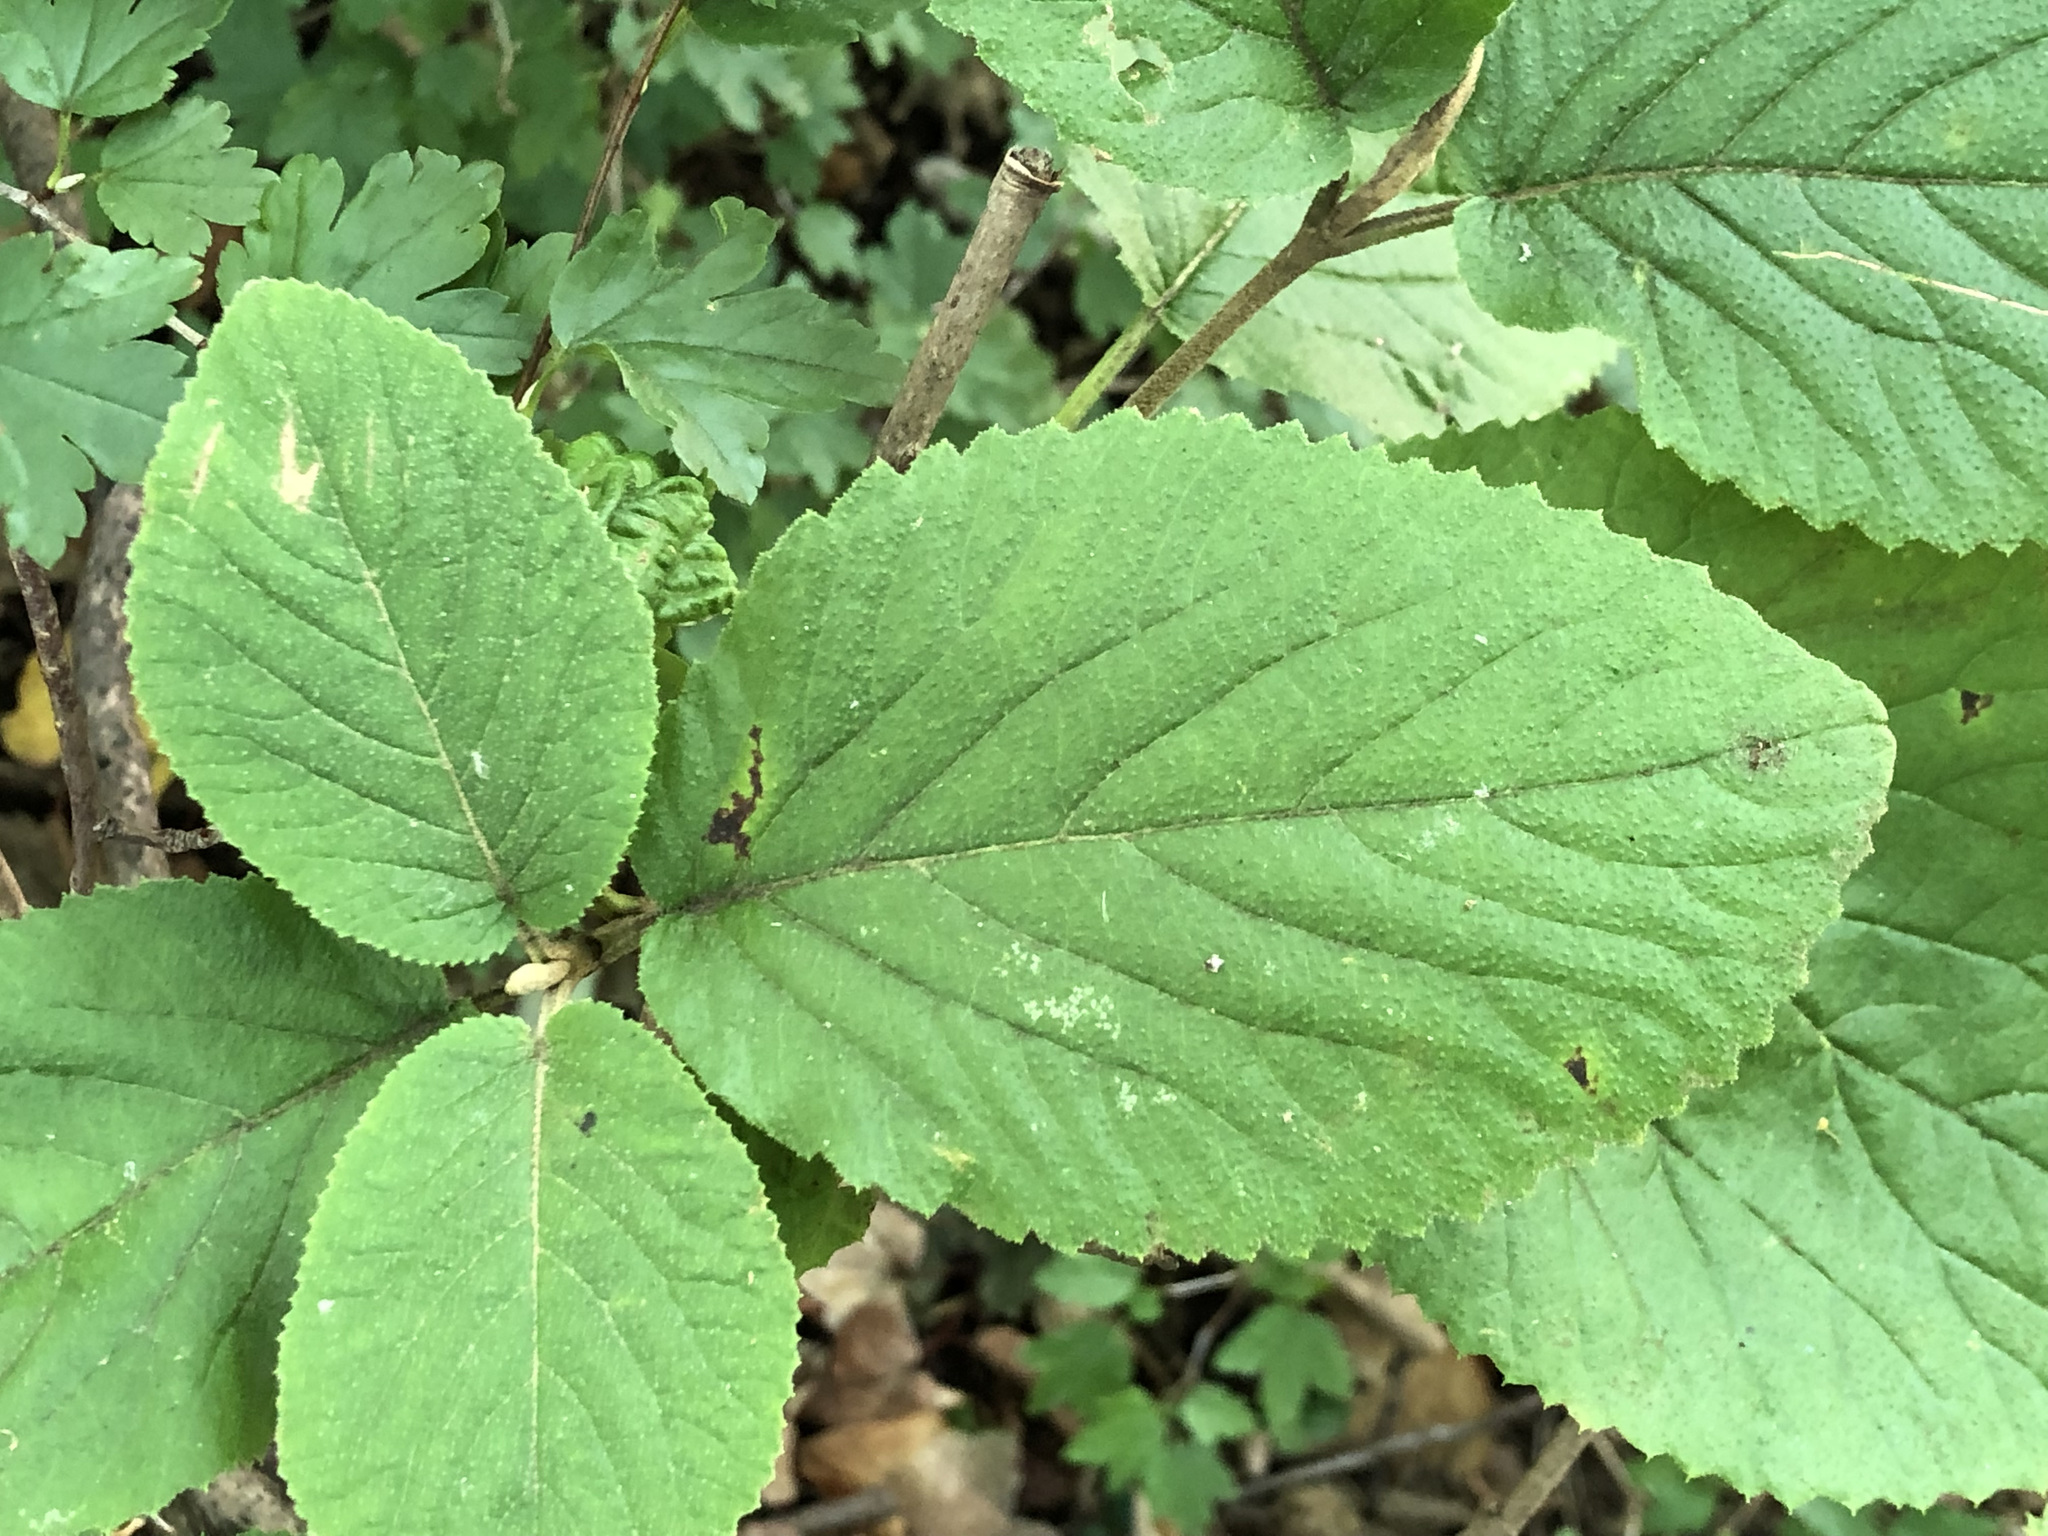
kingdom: Plantae
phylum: Tracheophyta
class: Magnoliopsida
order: Dipsacales
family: Viburnaceae
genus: Viburnum
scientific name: Viburnum lantana
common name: Wayfaring tree
